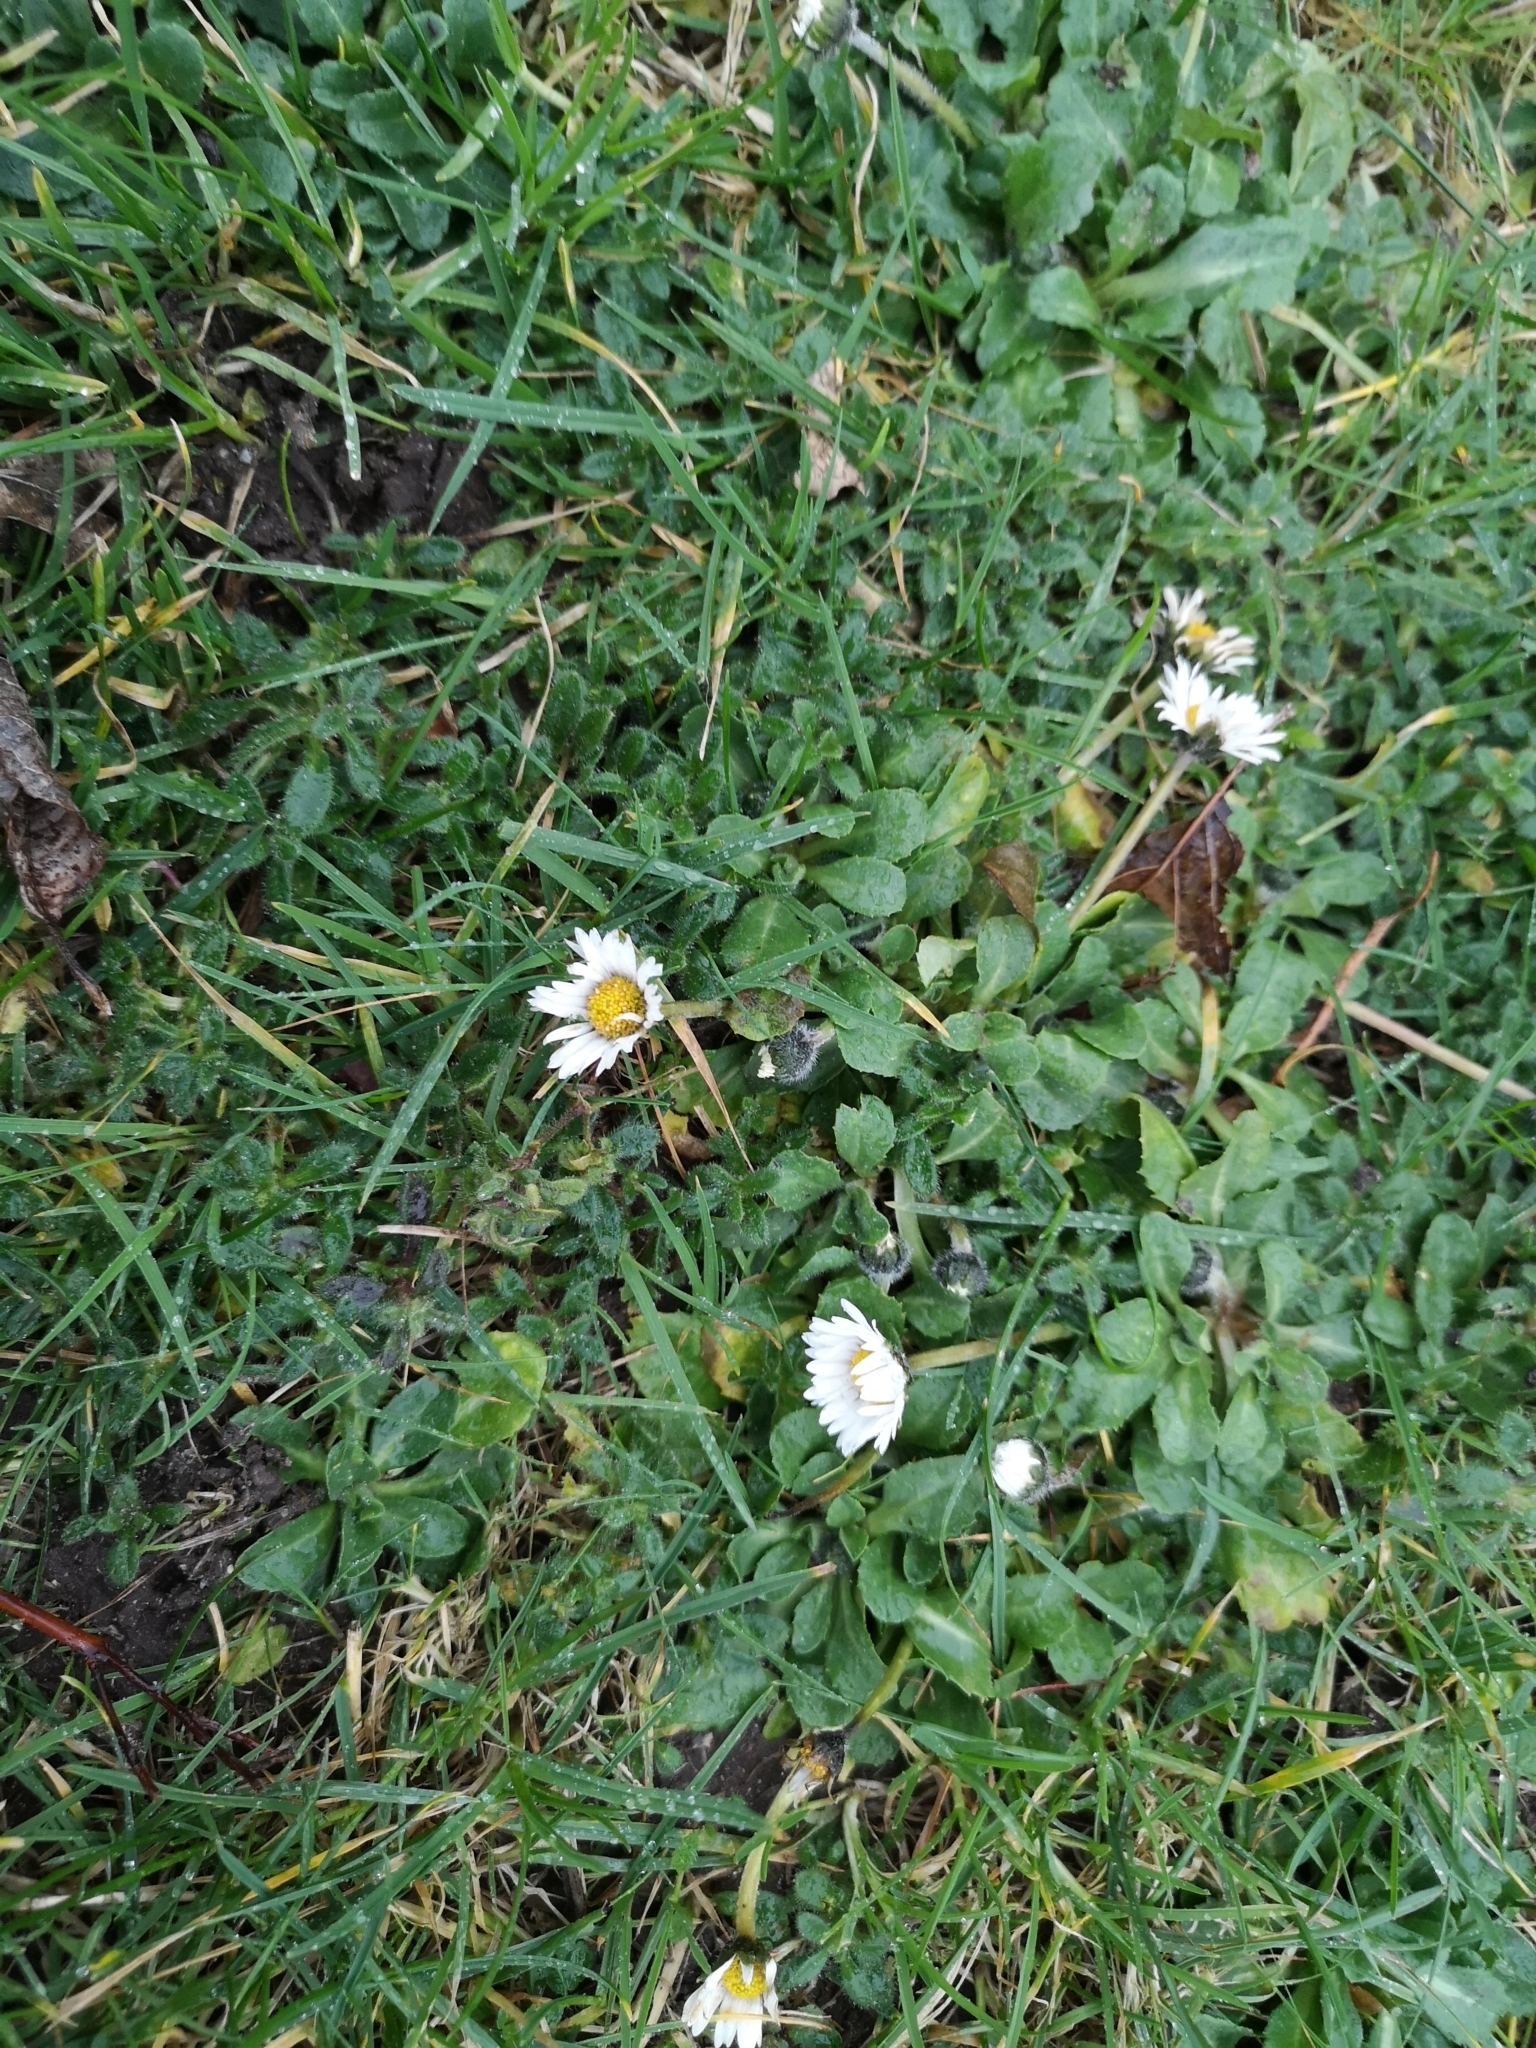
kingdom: Plantae
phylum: Tracheophyta
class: Magnoliopsida
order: Asterales
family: Asteraceae
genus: Bellis
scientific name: Bellis perennis
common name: Lawndaisy
